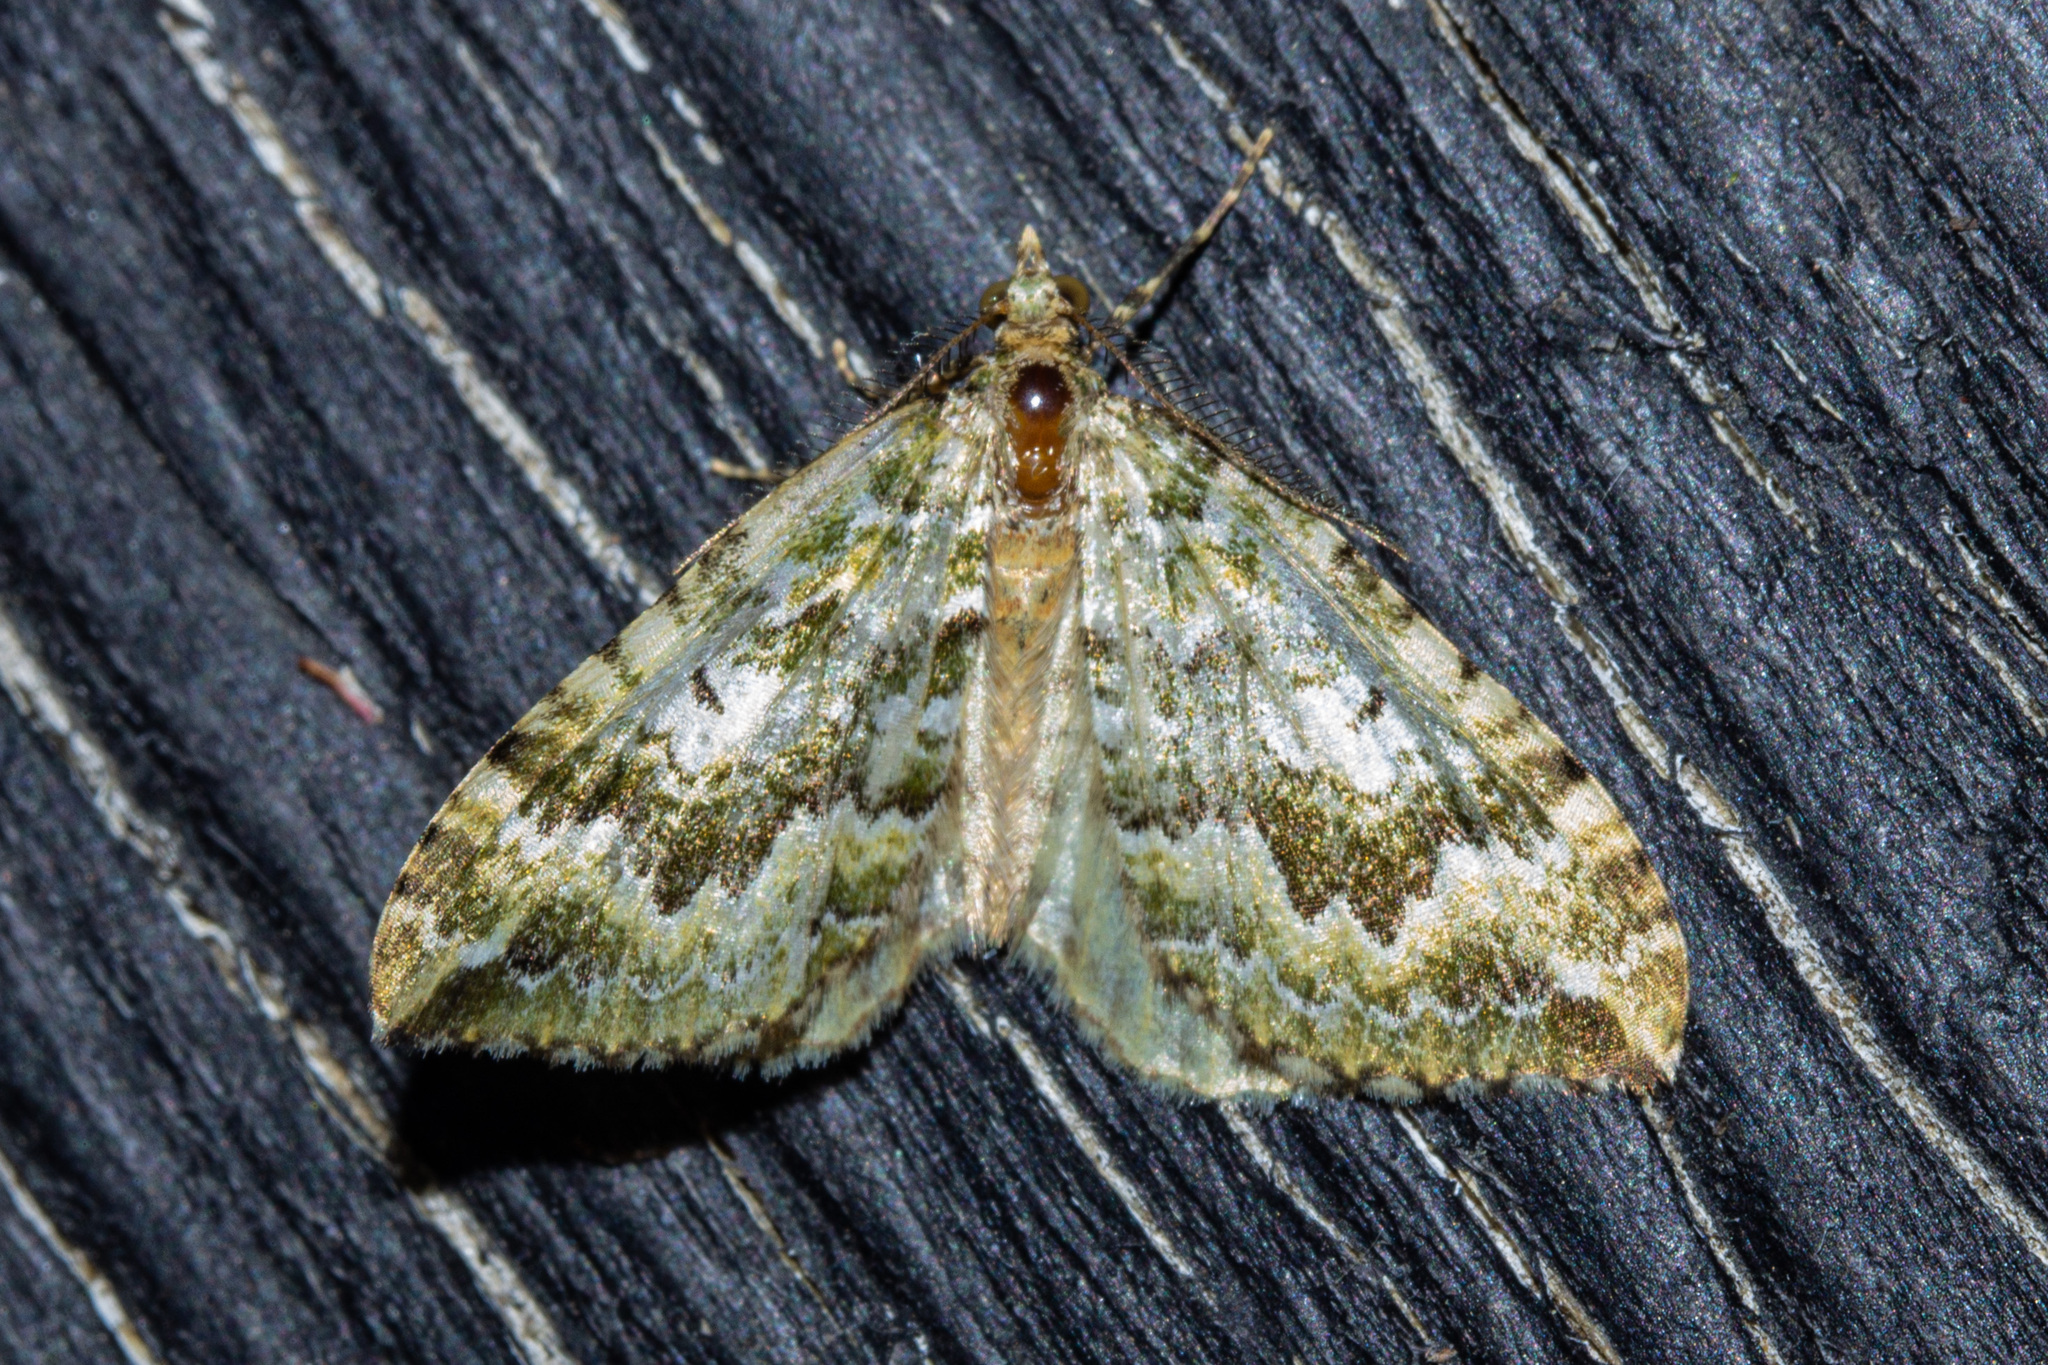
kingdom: Animalia
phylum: Arthropoda
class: Insecta
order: Lepidoptera
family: Geometridae
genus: Asaphodes
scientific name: Asaphodes beata
